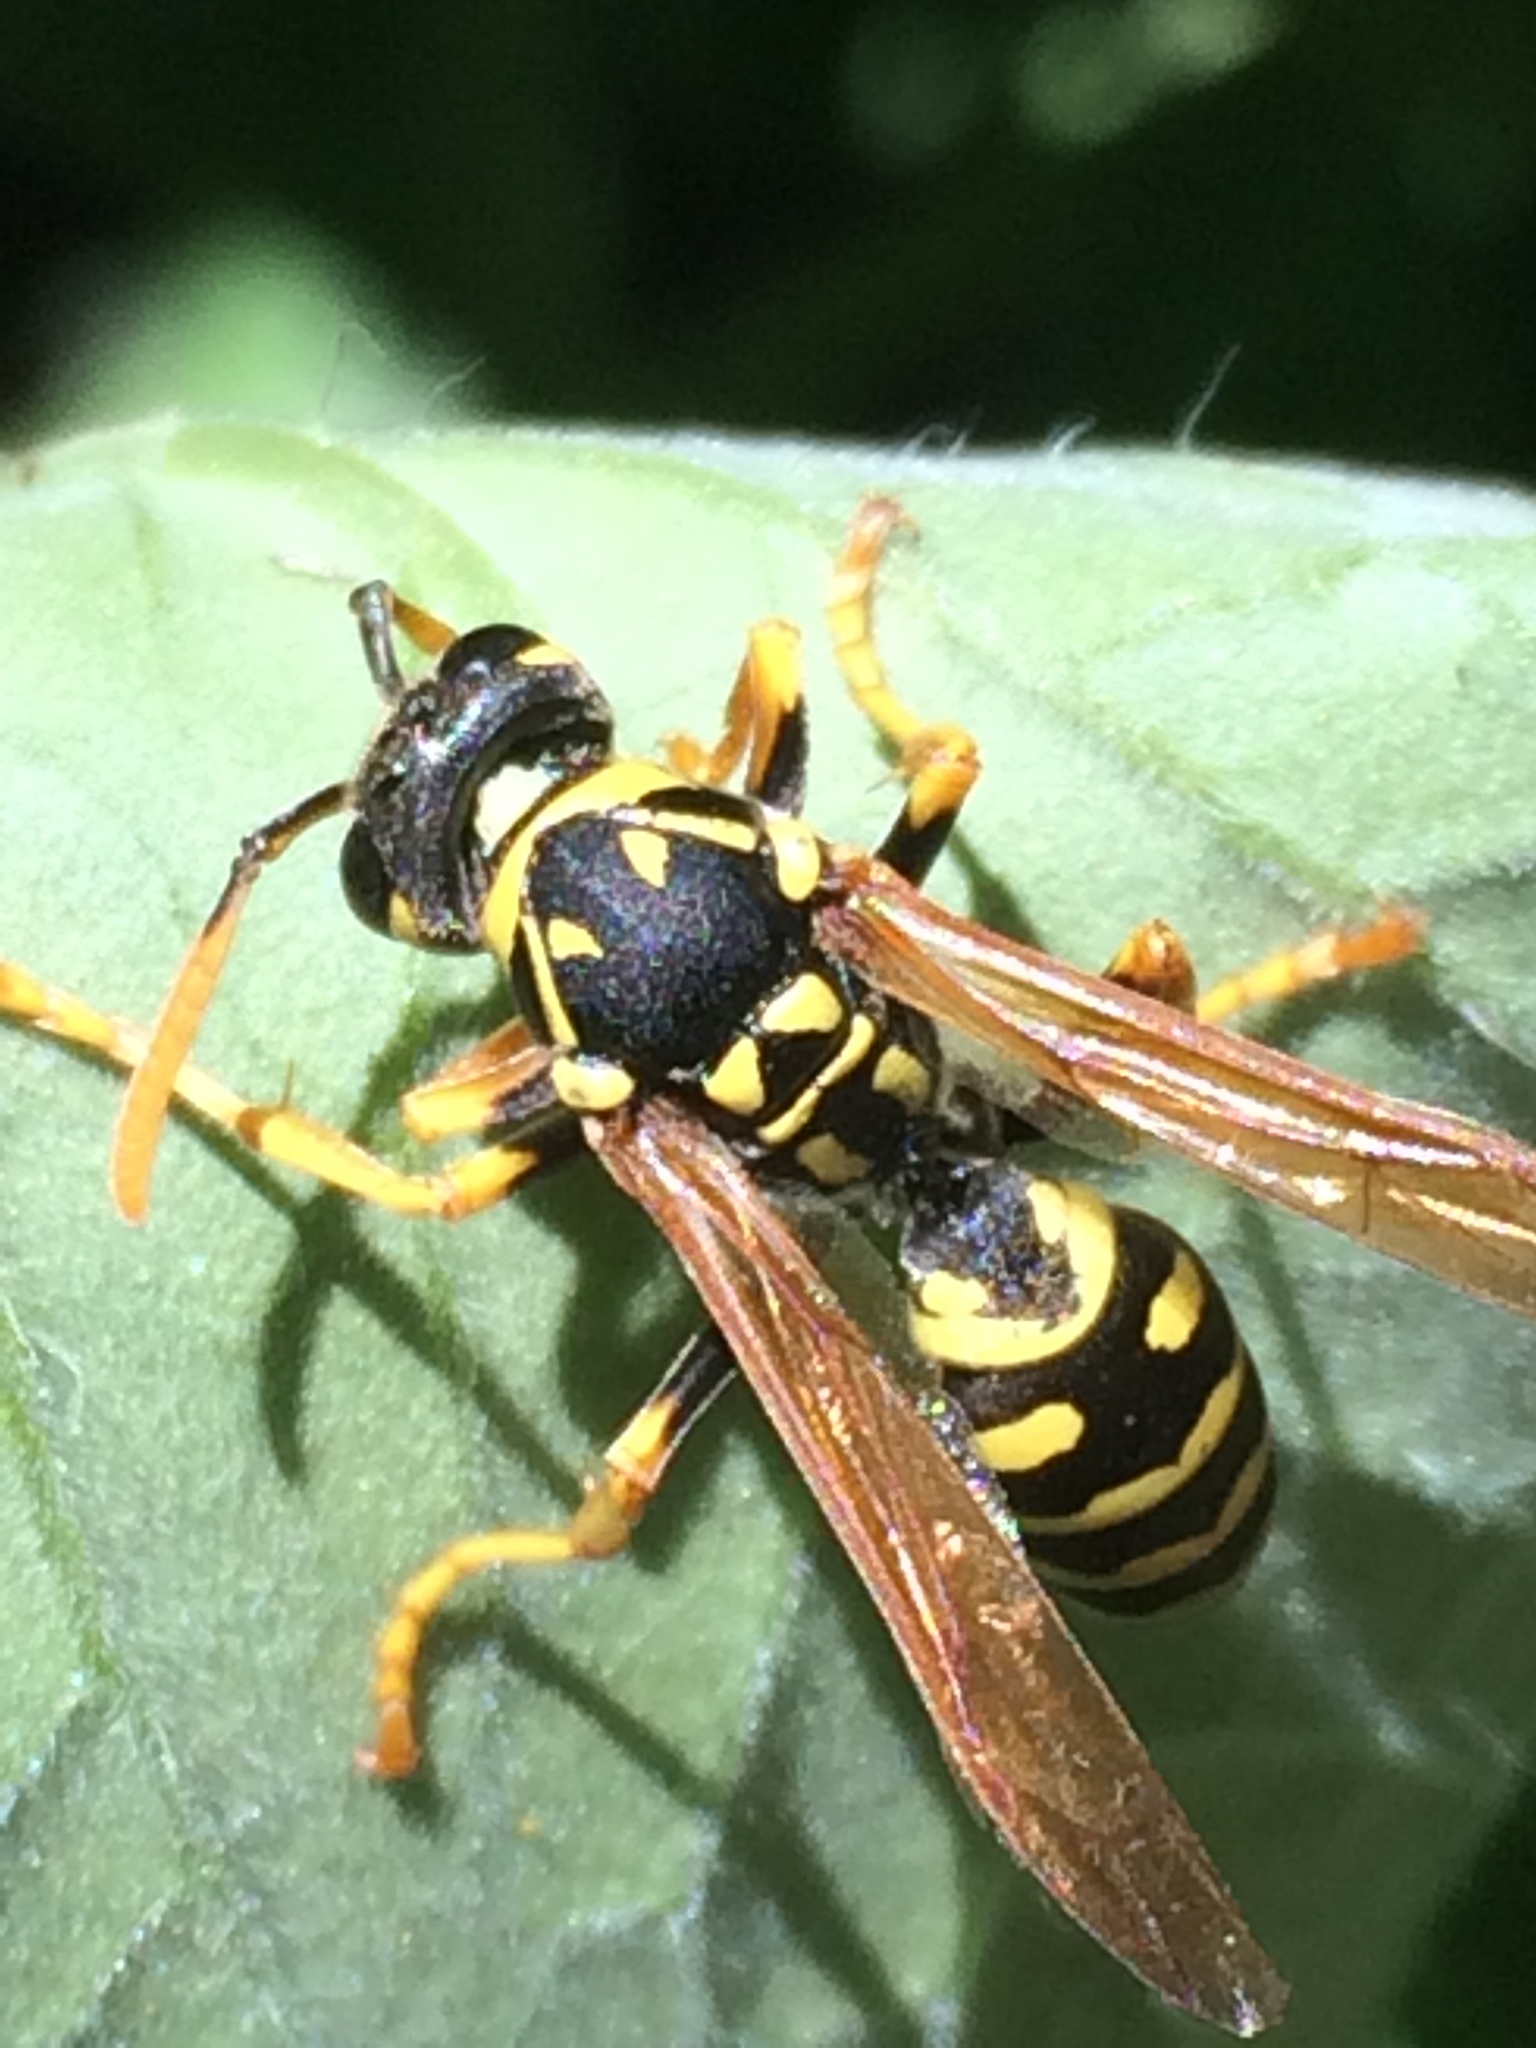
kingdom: Animalia
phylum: Arthropoda
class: Insecta
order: Hymenoptera
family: Eumenidae
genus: Polistes
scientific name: Polistes dominula
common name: Paper wasp
